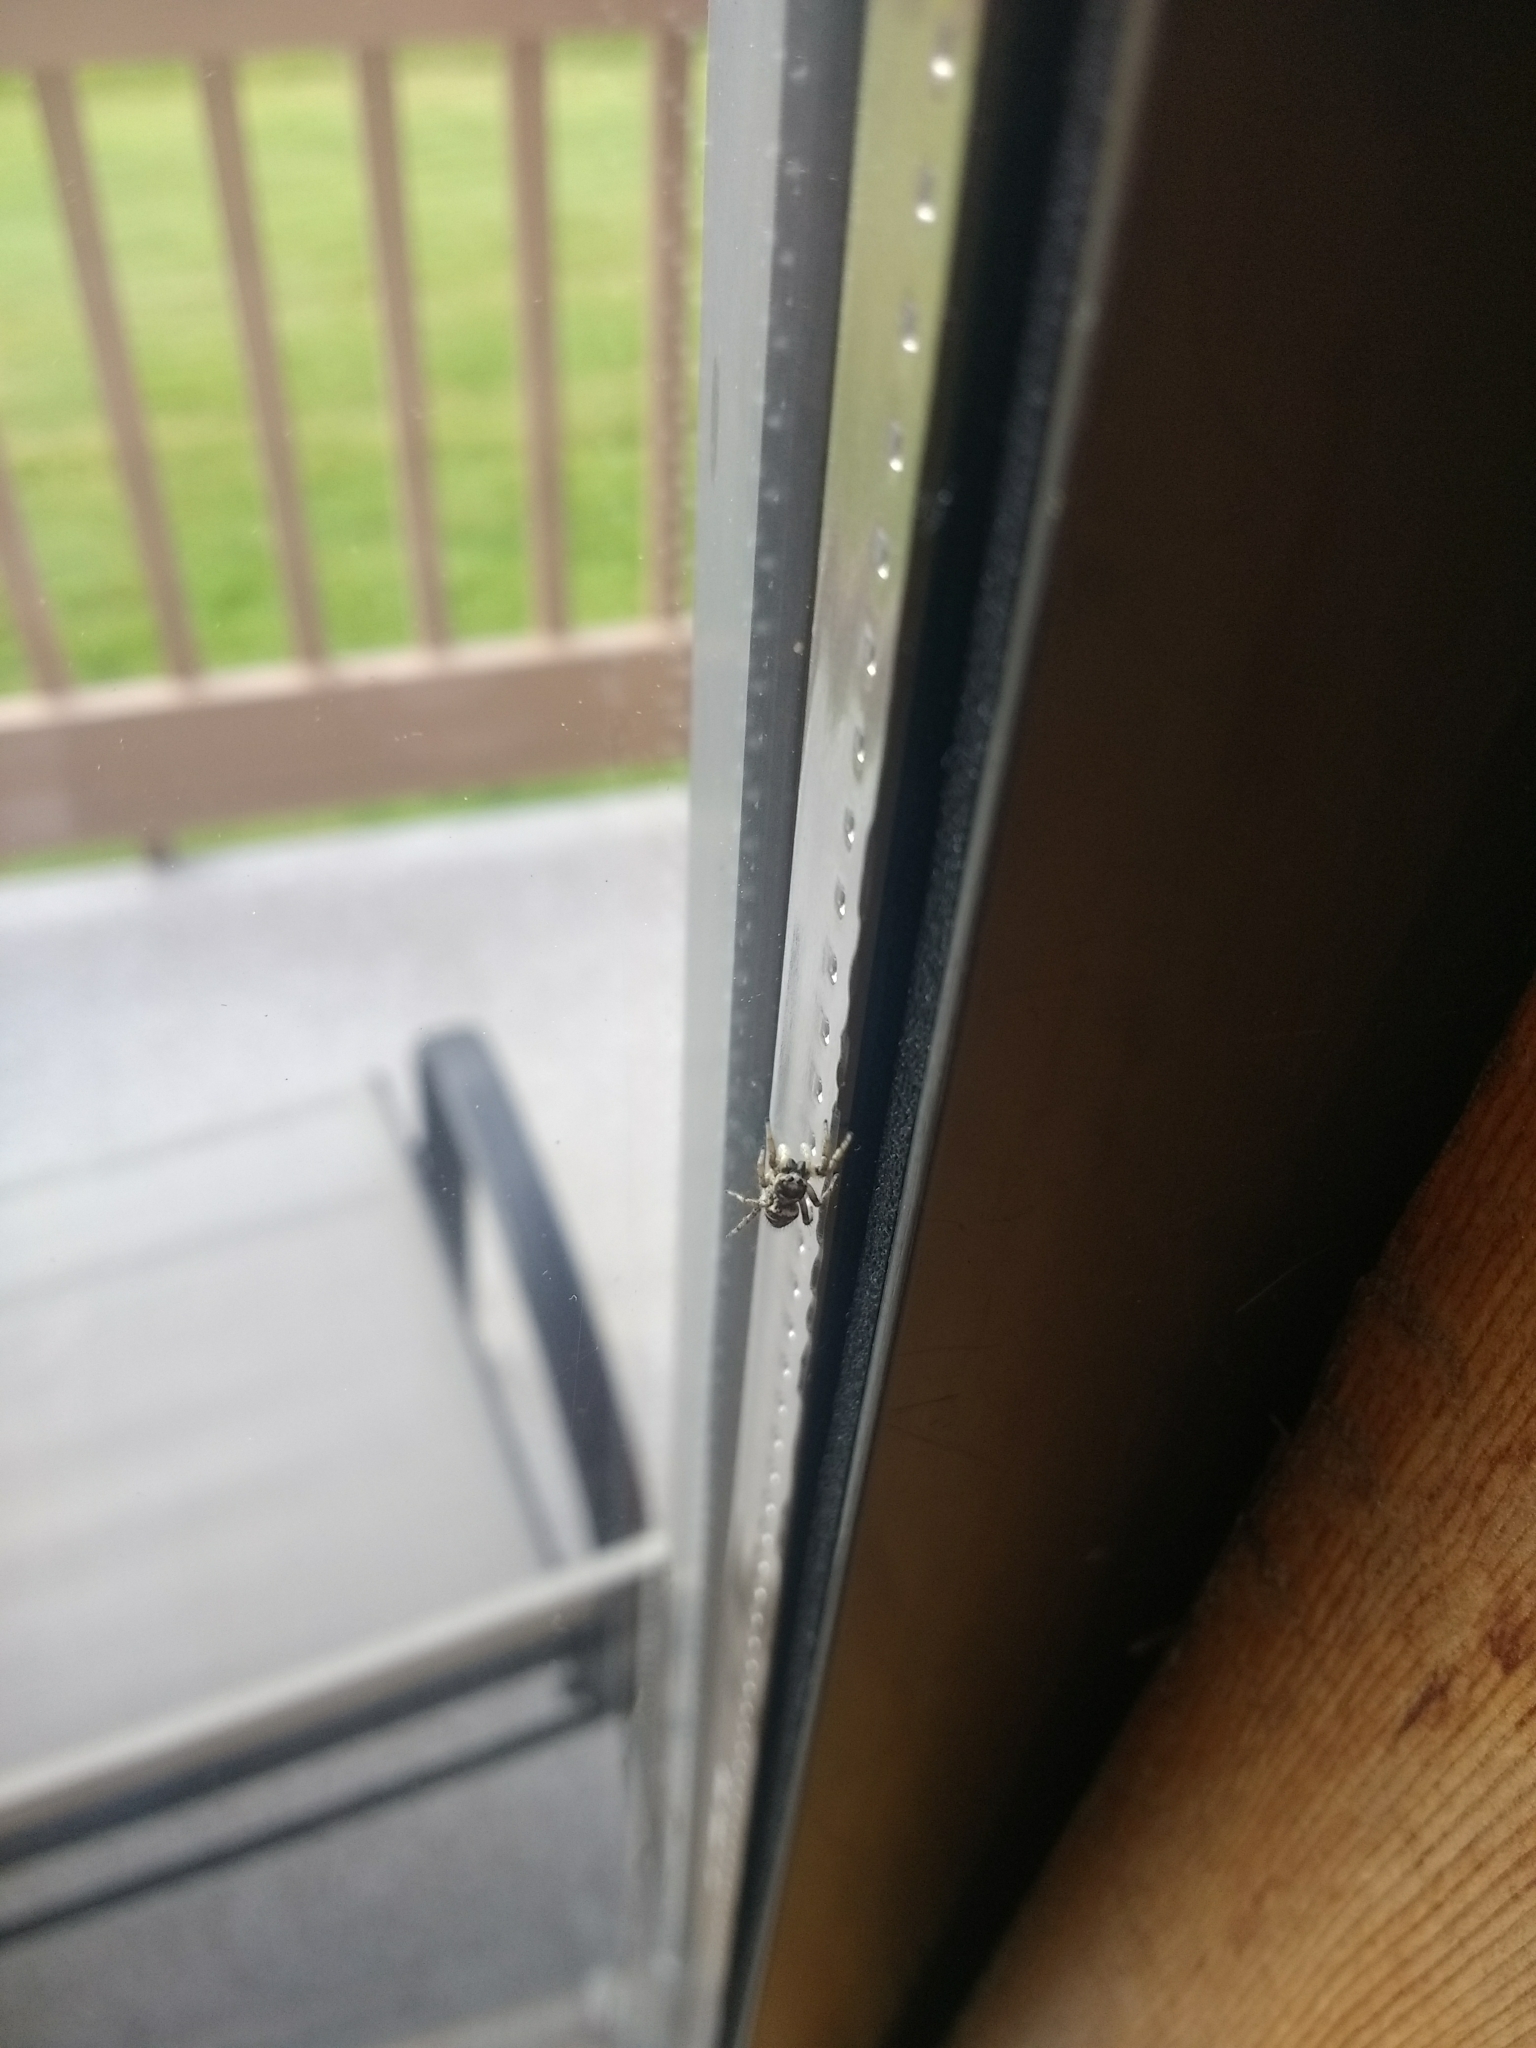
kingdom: Animalia
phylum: Arthropoda
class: Arachnida
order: Araneae
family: Salticidae
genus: Salticus
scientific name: Salticus scenicus
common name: Zebra jumper
